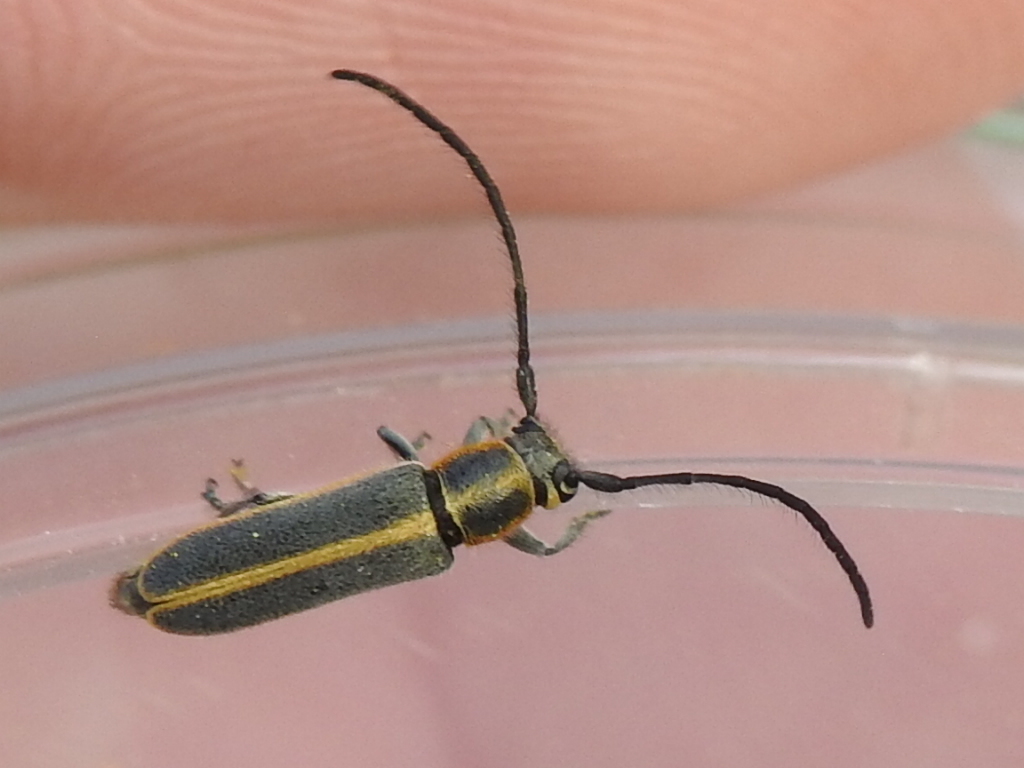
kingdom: Animalia
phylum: Arthropoda
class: Insecta
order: Coleoptera
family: Cerambycidae
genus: Mecas
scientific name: Mecas marginella
